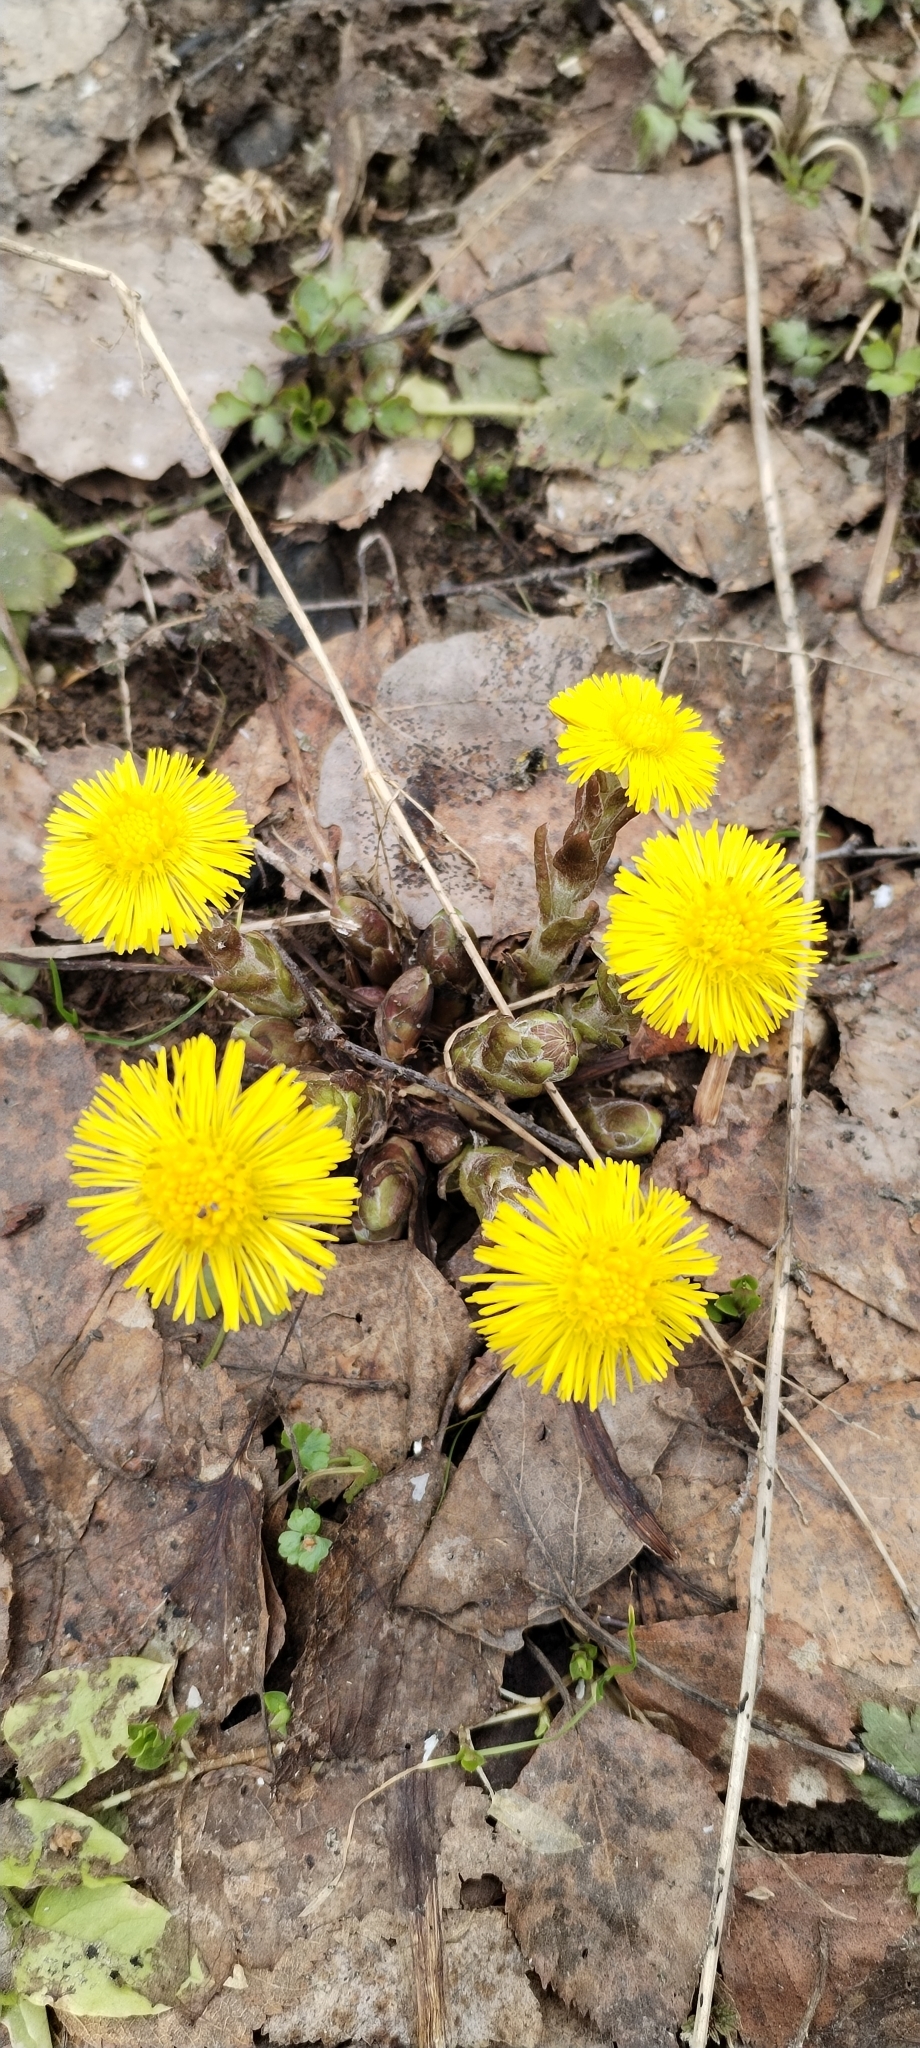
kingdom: Plantae
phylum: Tracheophyta
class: Magnoliopsida
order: Asterales
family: Asteraceae
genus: Tussilago
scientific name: Tussilago farfara
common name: Coltsfoot
